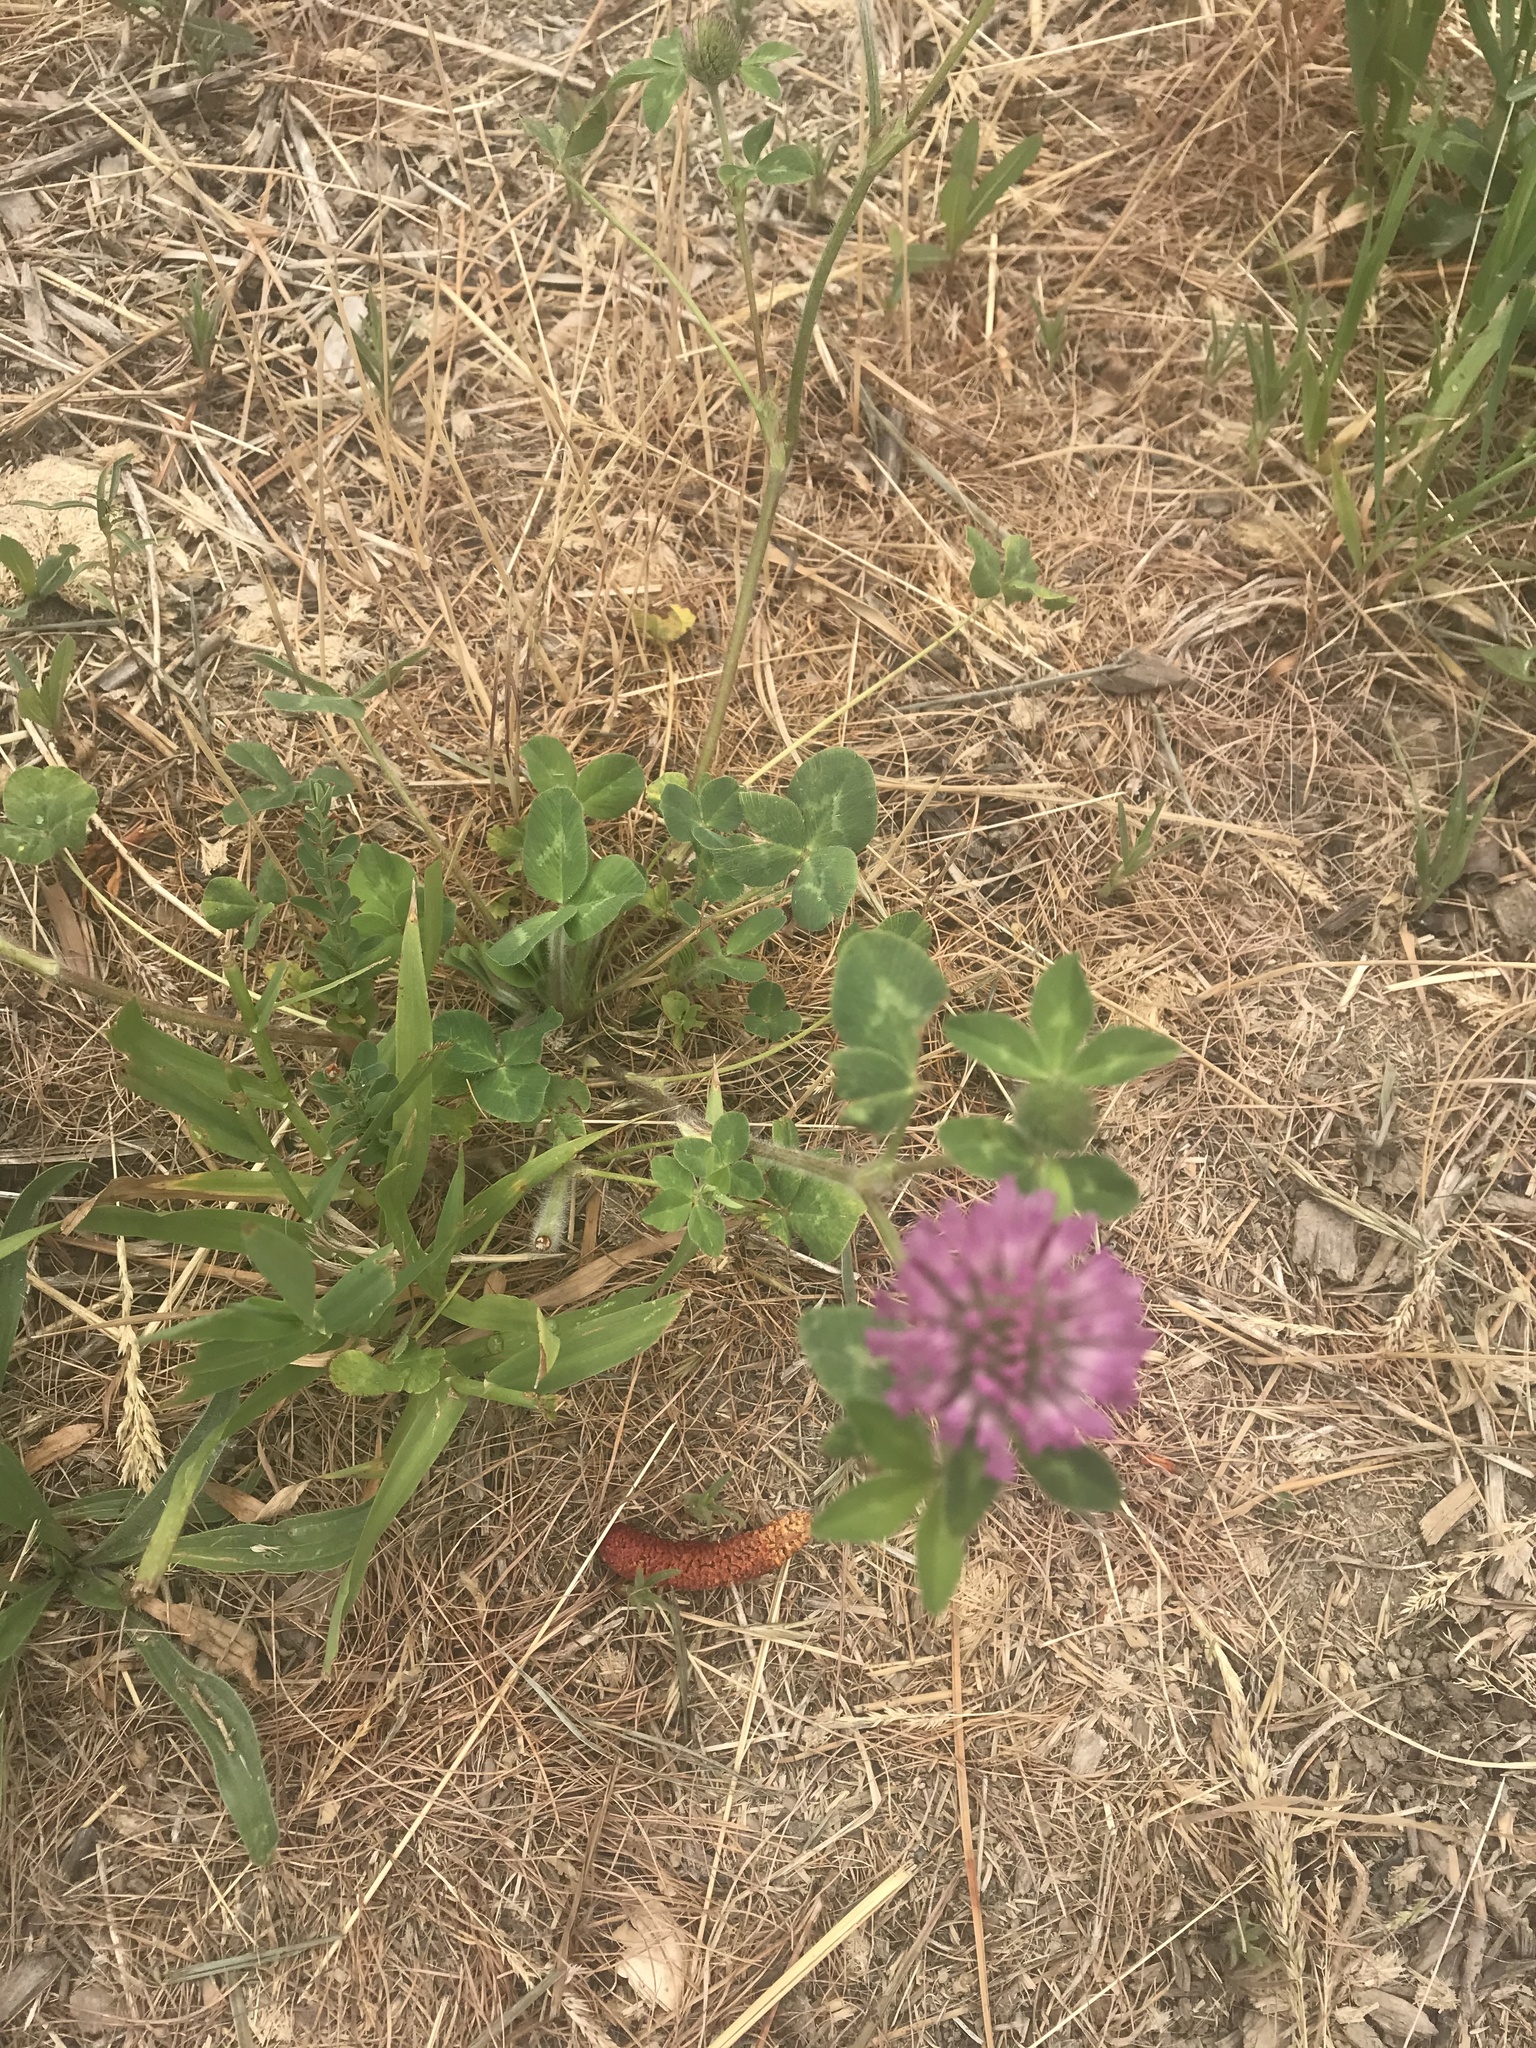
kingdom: Plantae
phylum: Tracheophyta
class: Magnoliopsida
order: Fabales
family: Fabaceae
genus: Trifolium
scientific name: Trifolium pratense
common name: Red clover
